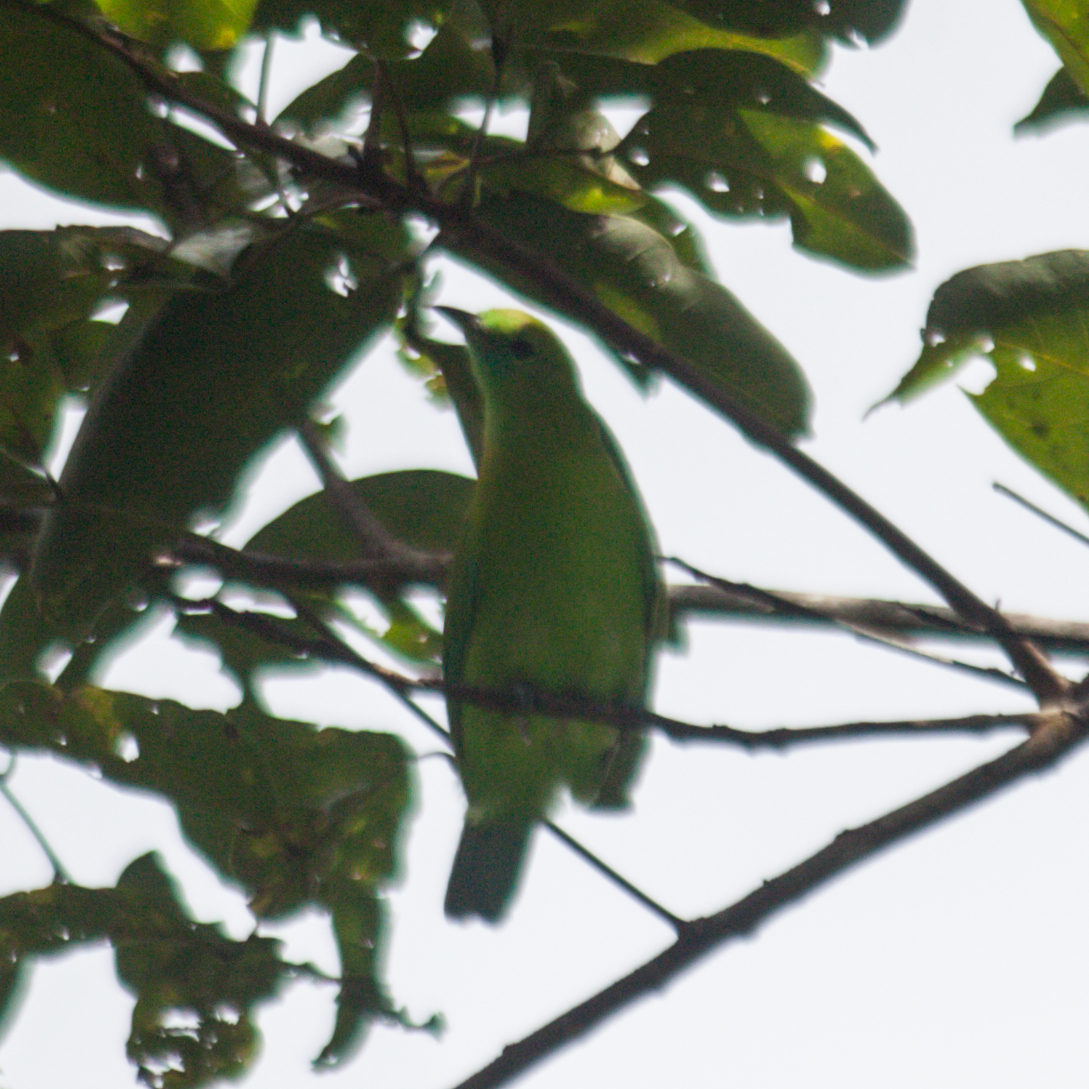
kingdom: Animalia
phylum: Chordata
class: Aves
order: Passeriformes
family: Chloropseidae
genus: Chloropsis
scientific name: Chloropsis moluccensis
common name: Blue-winged leafbird
